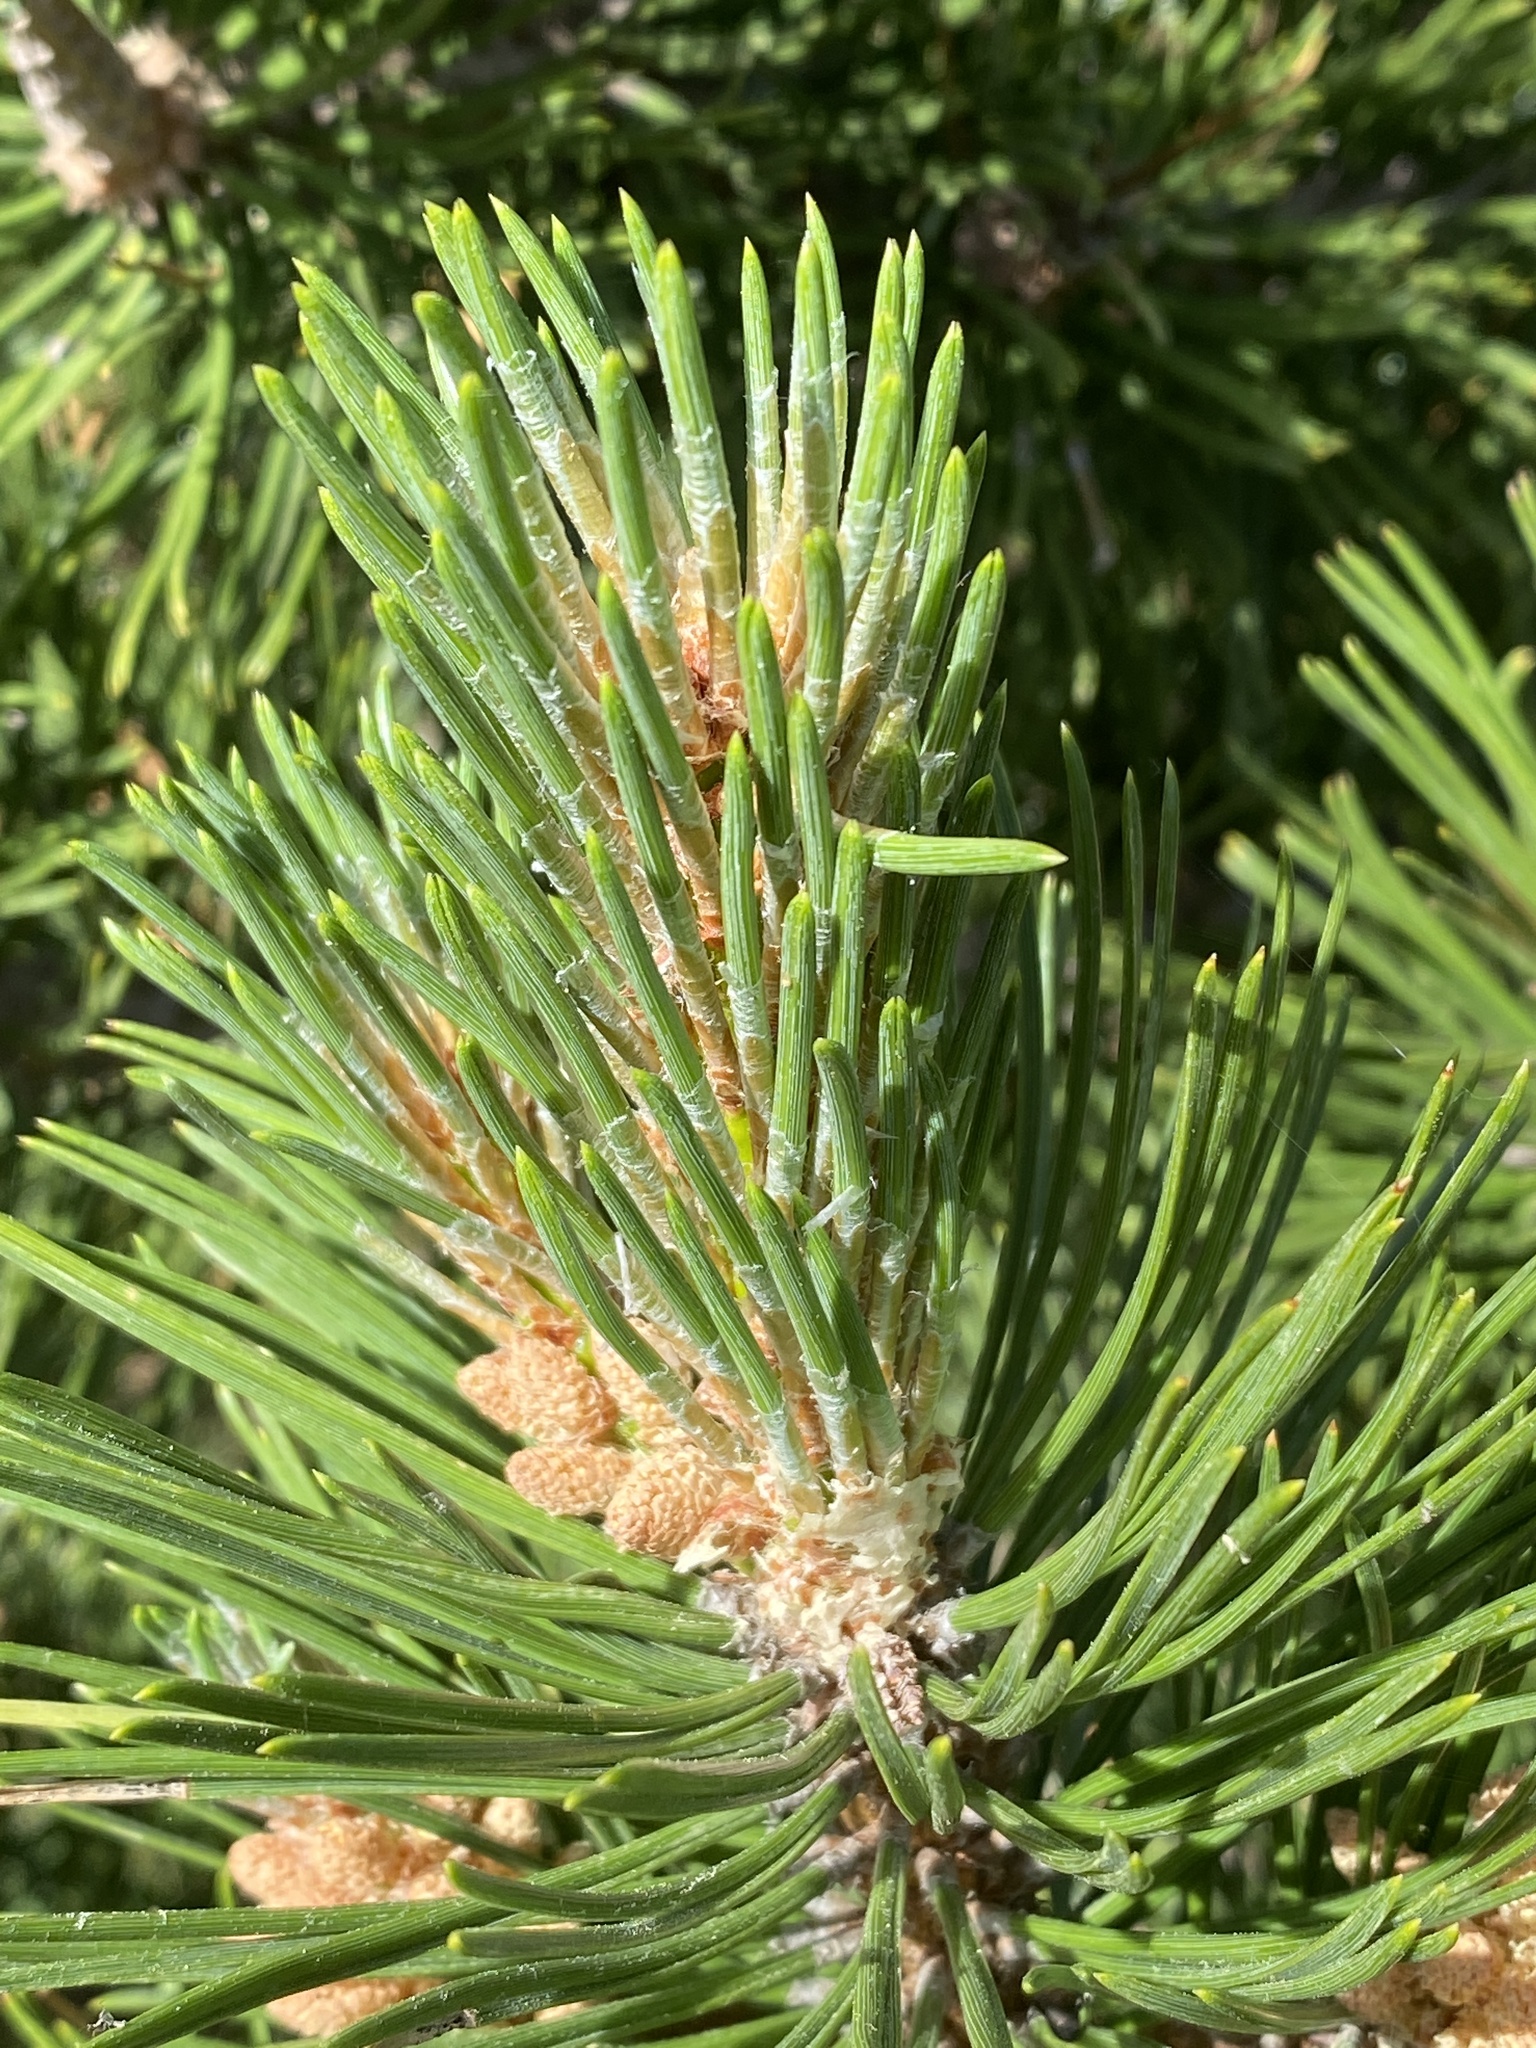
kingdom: Plantae
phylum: Tracheophyta
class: Pinopsida
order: Pinales
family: Pinaceae
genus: Pinus
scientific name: Pinus uncinata
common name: Mountain pine
